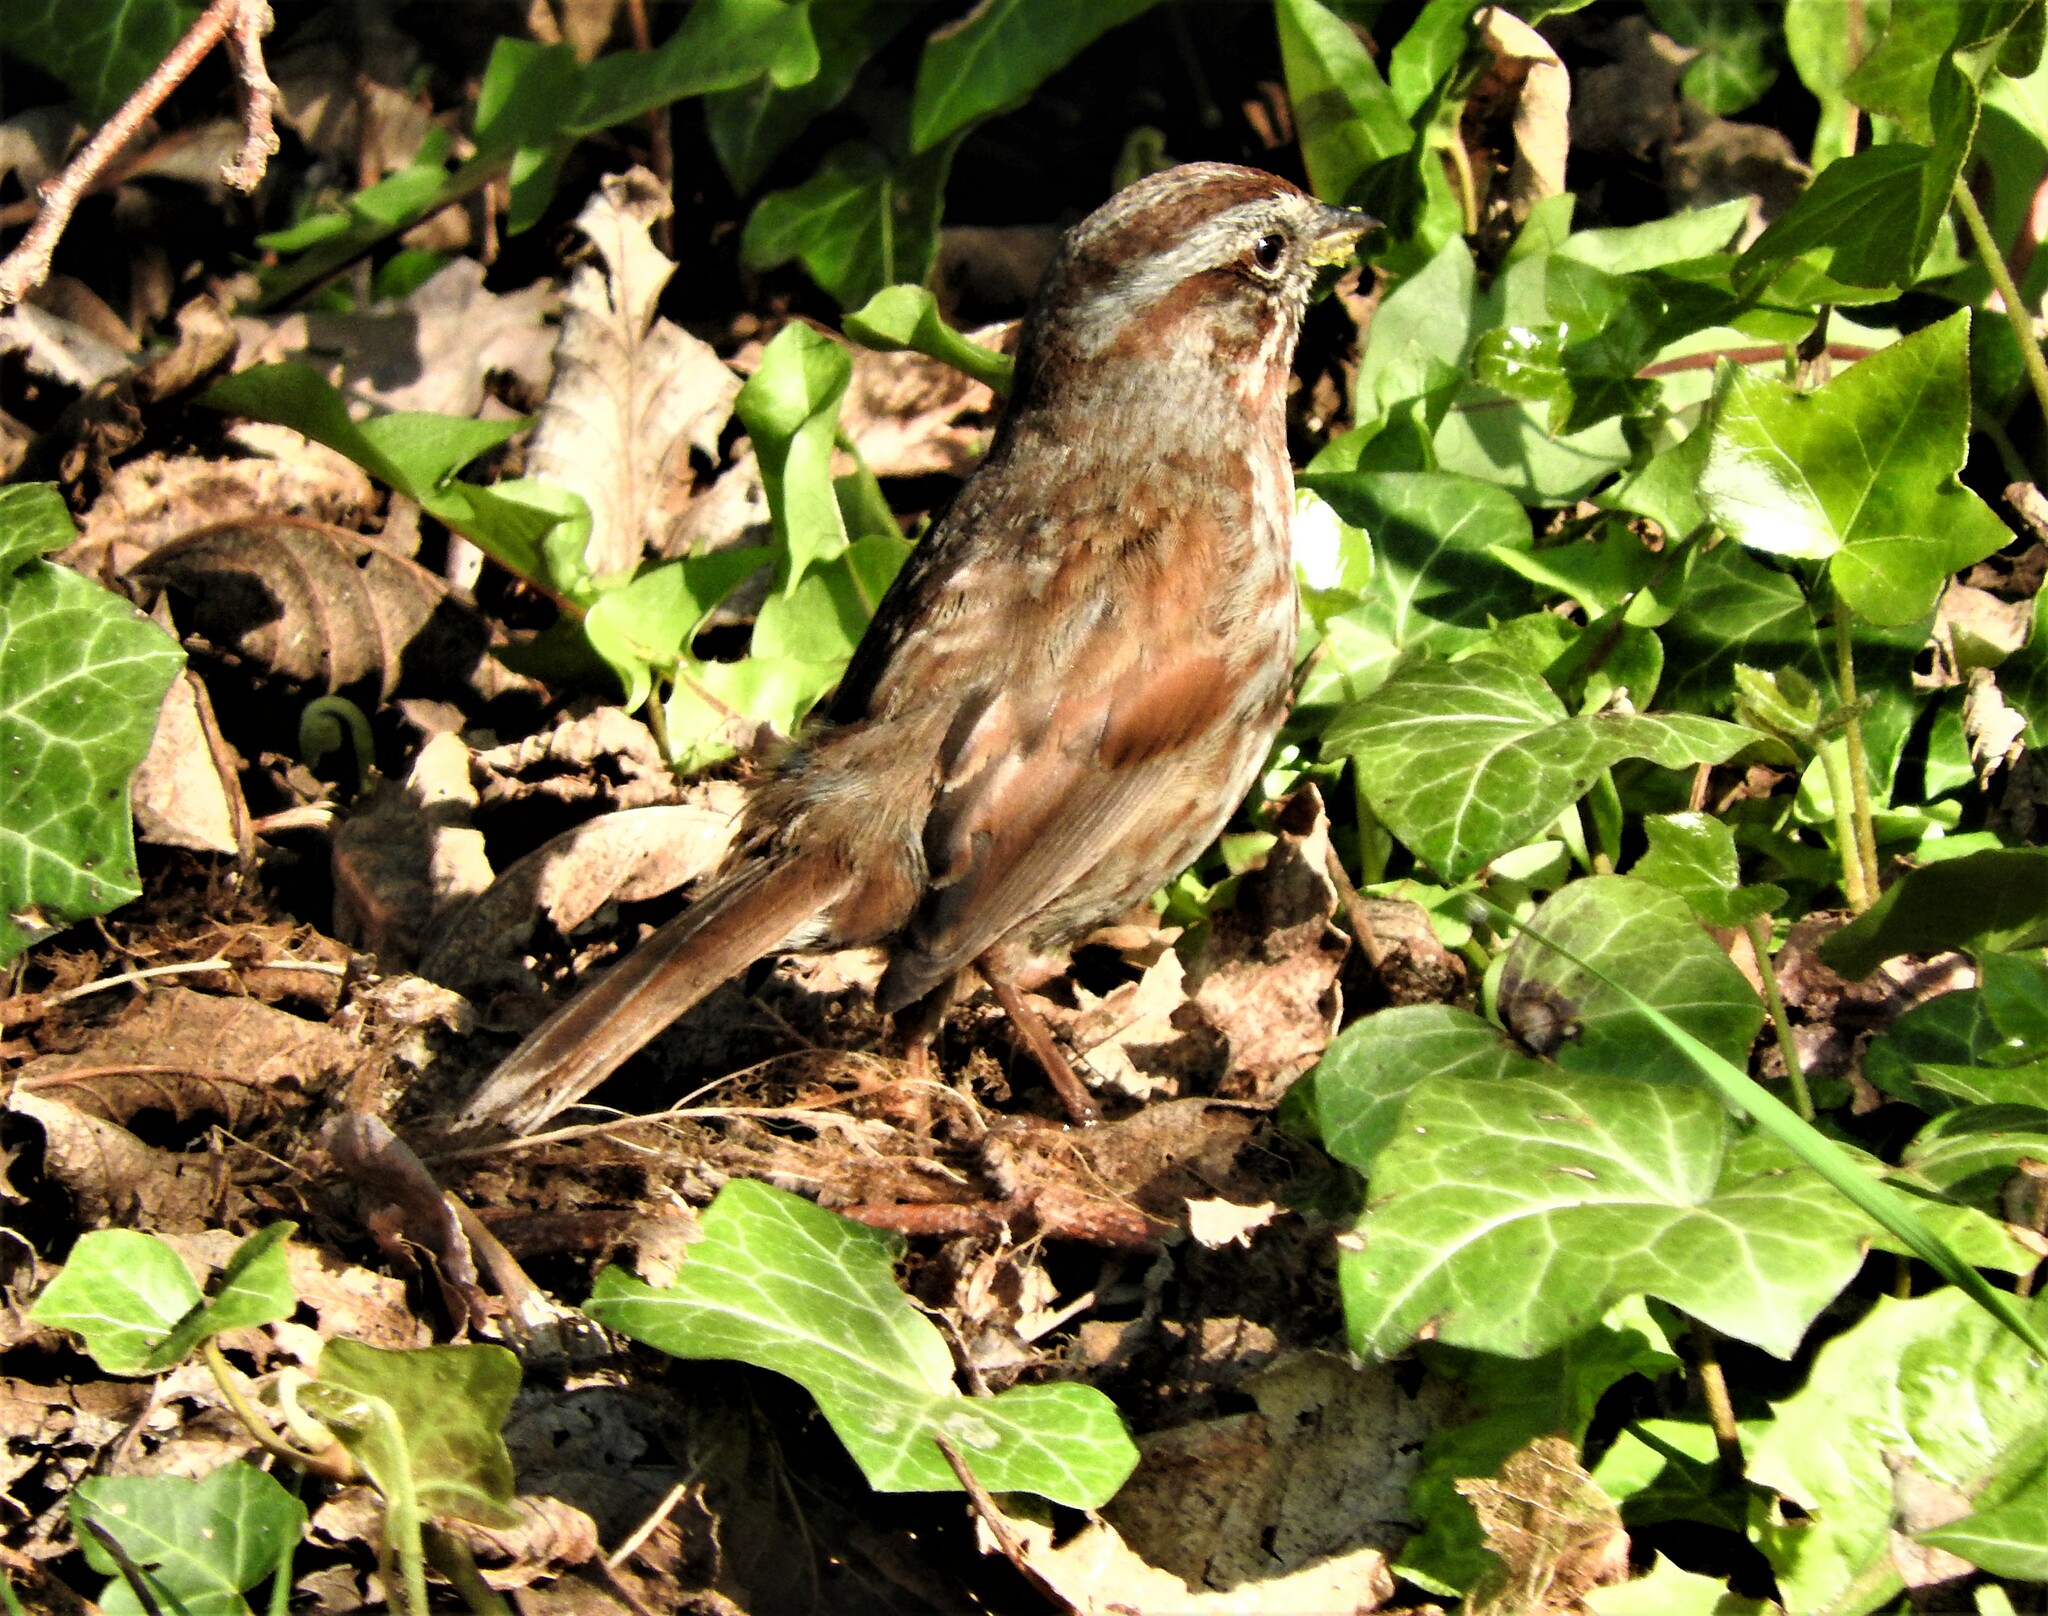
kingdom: Animalia
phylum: Chordata
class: Aves
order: Passeriformes
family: Passerellidae
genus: Melospiza
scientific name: Melospiza melodia
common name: Song sparrow
